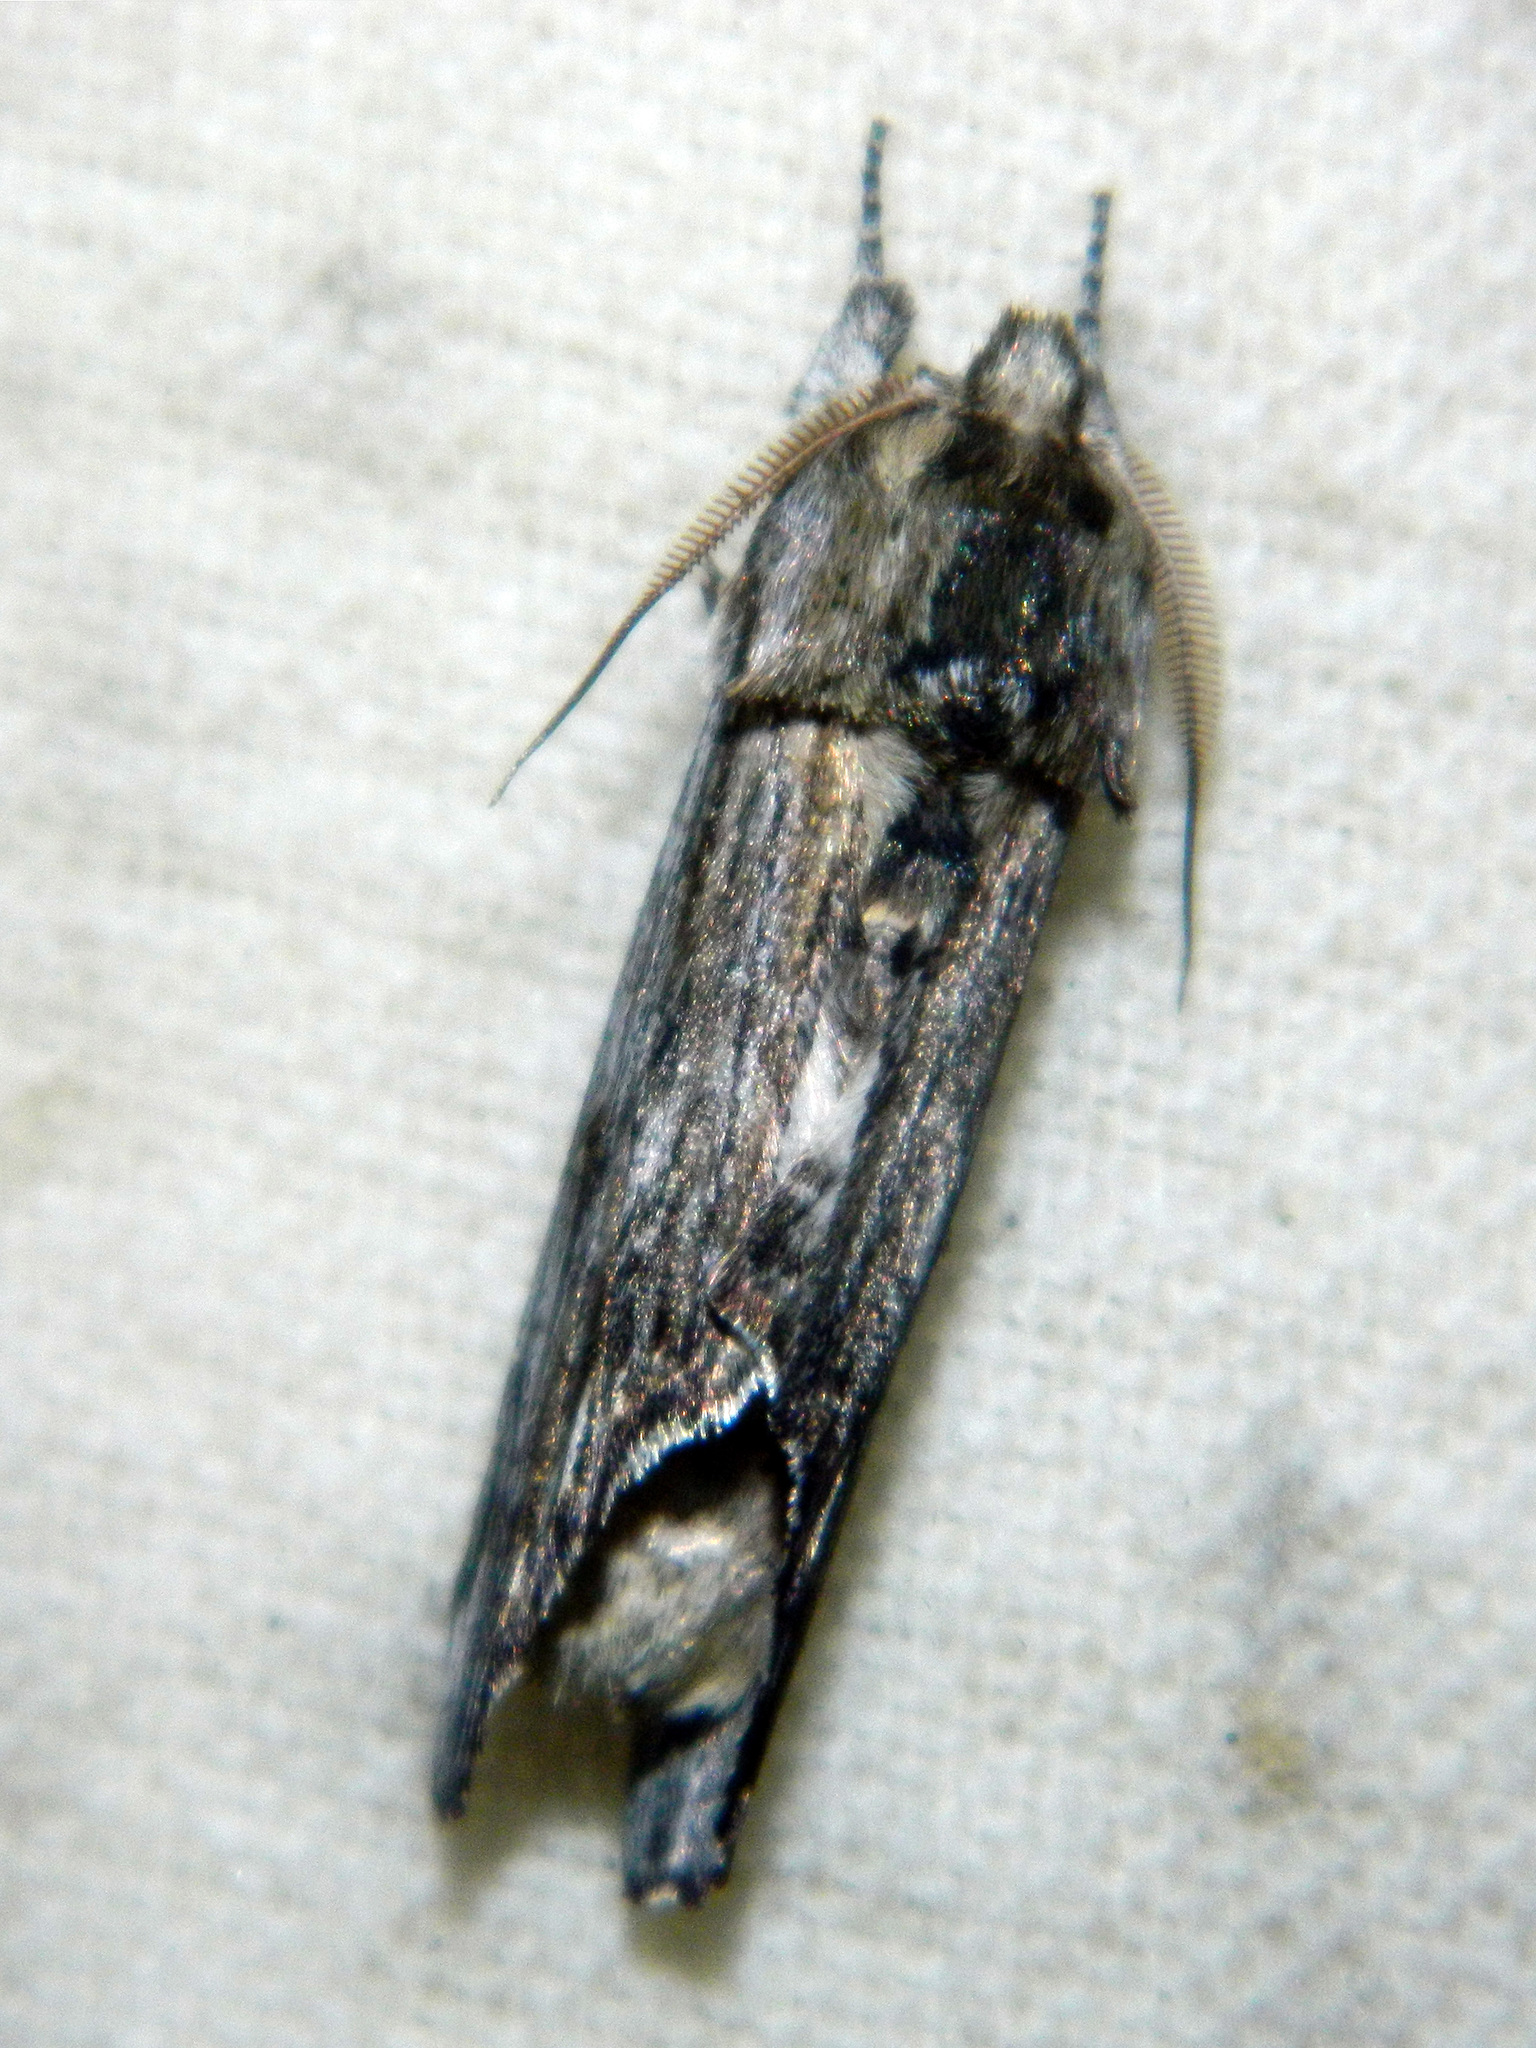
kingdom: Animalia
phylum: Arthropoda
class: Insecta
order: Lepidoptera
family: Notodontidae
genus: Oligocentria
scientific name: Oligocentria Ianassa lignicolor
